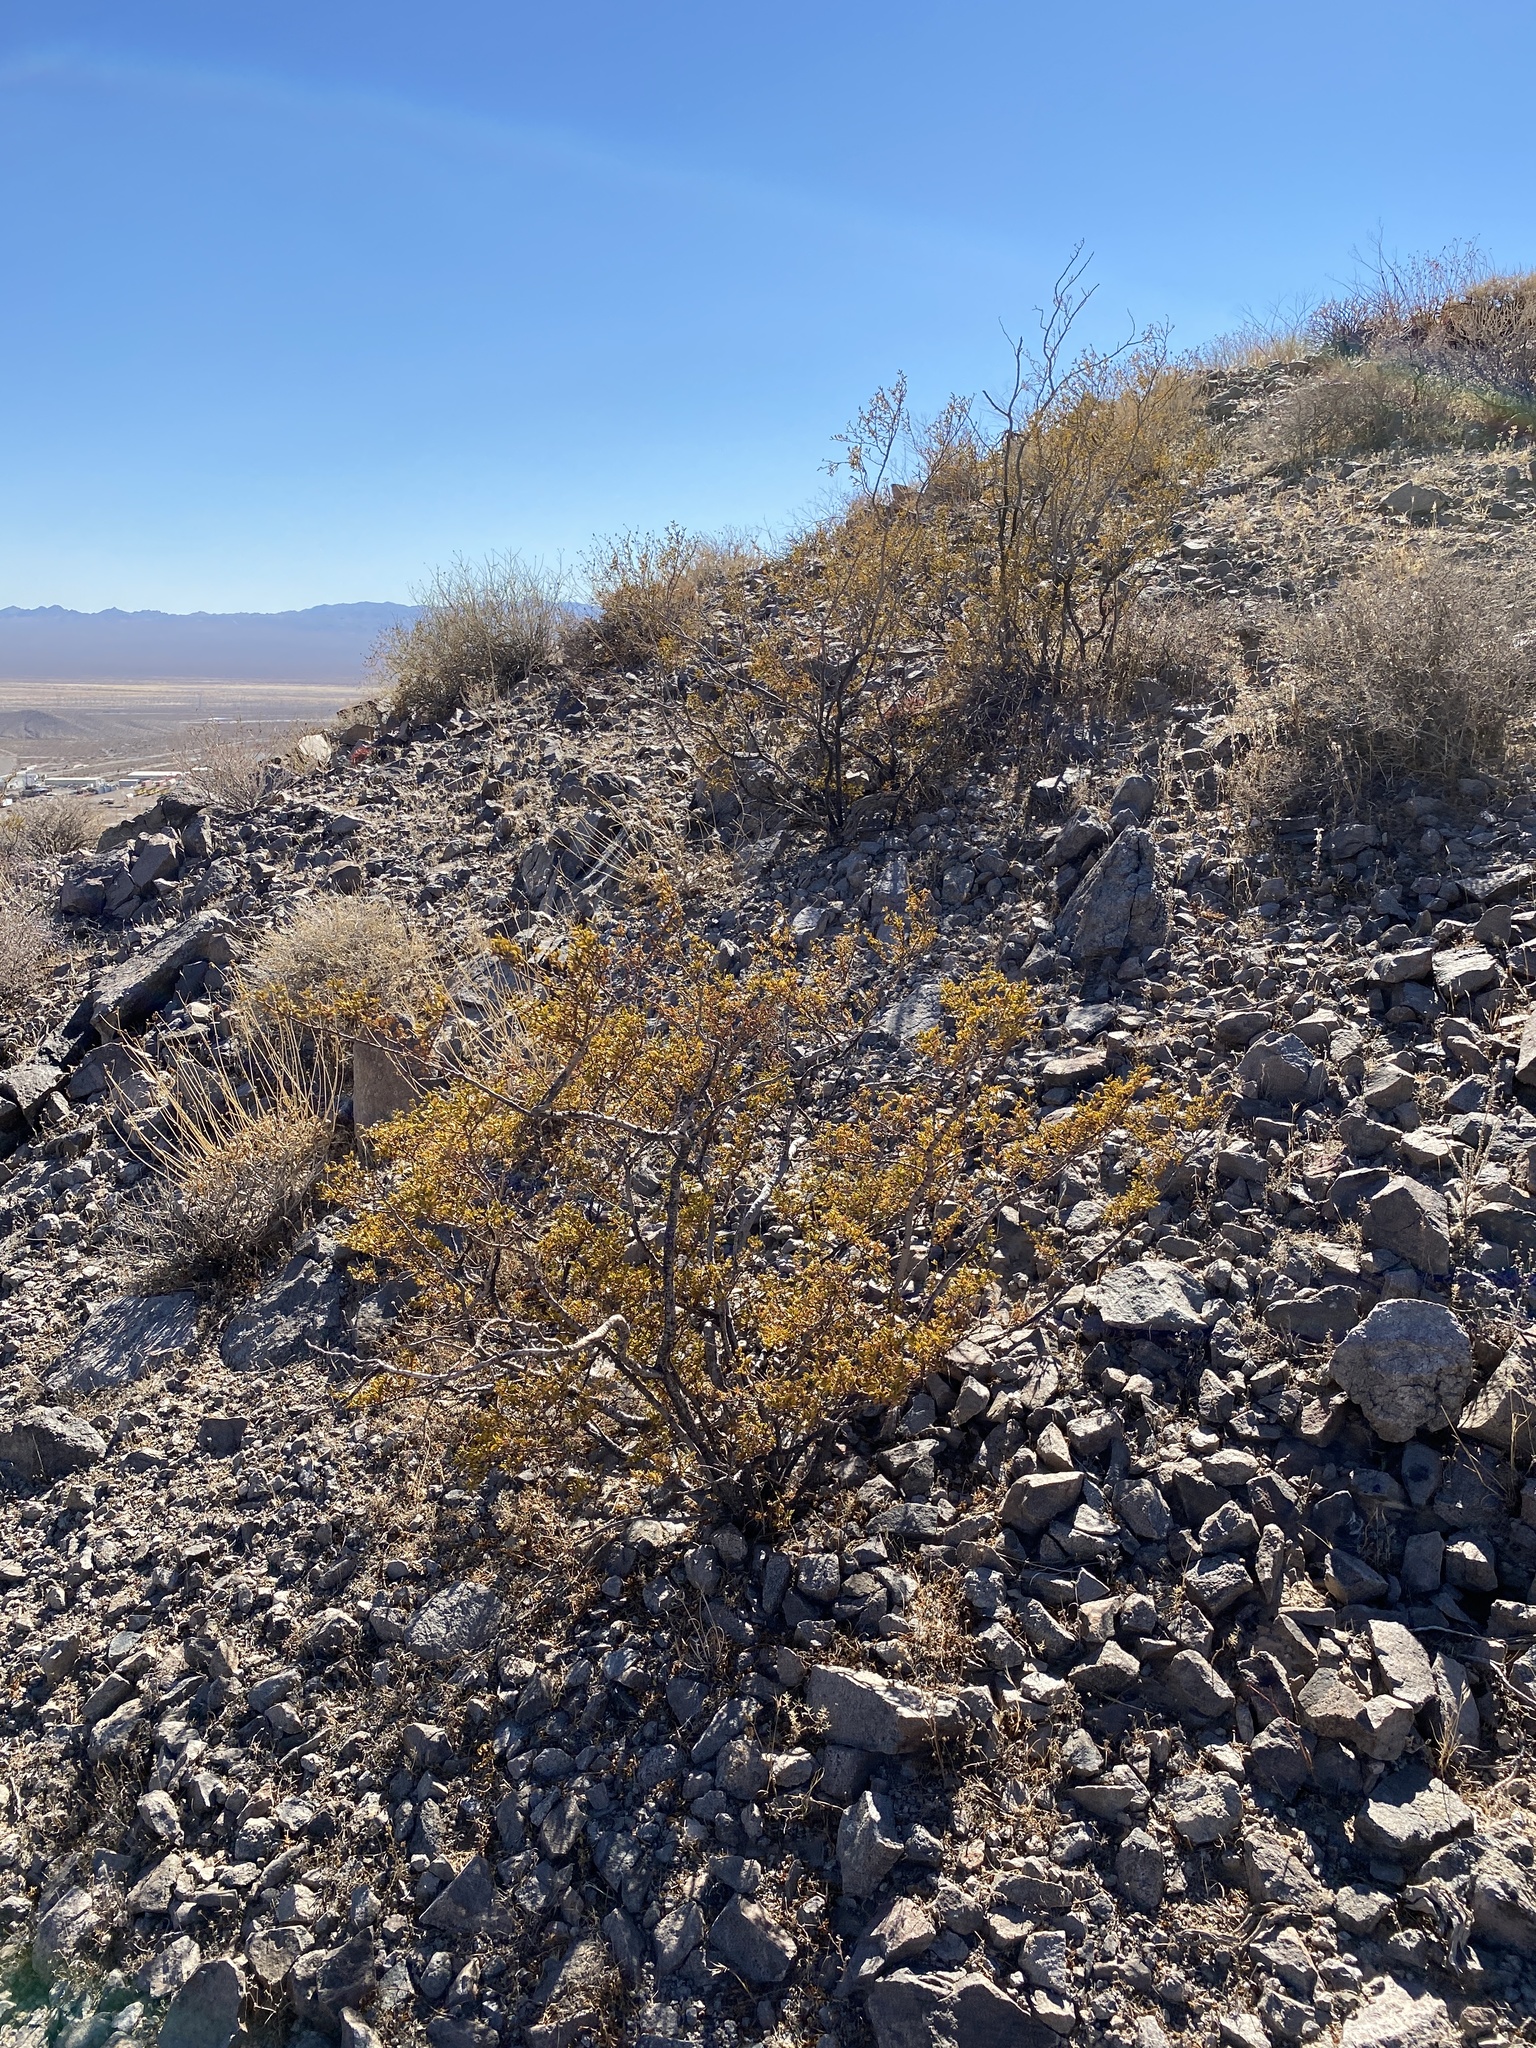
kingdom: Plantae
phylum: Tracheophyta
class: Magnoliopsida
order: Zygophyllales
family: Zygophyllaceae
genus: Larrea
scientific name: Larrea tridentata
